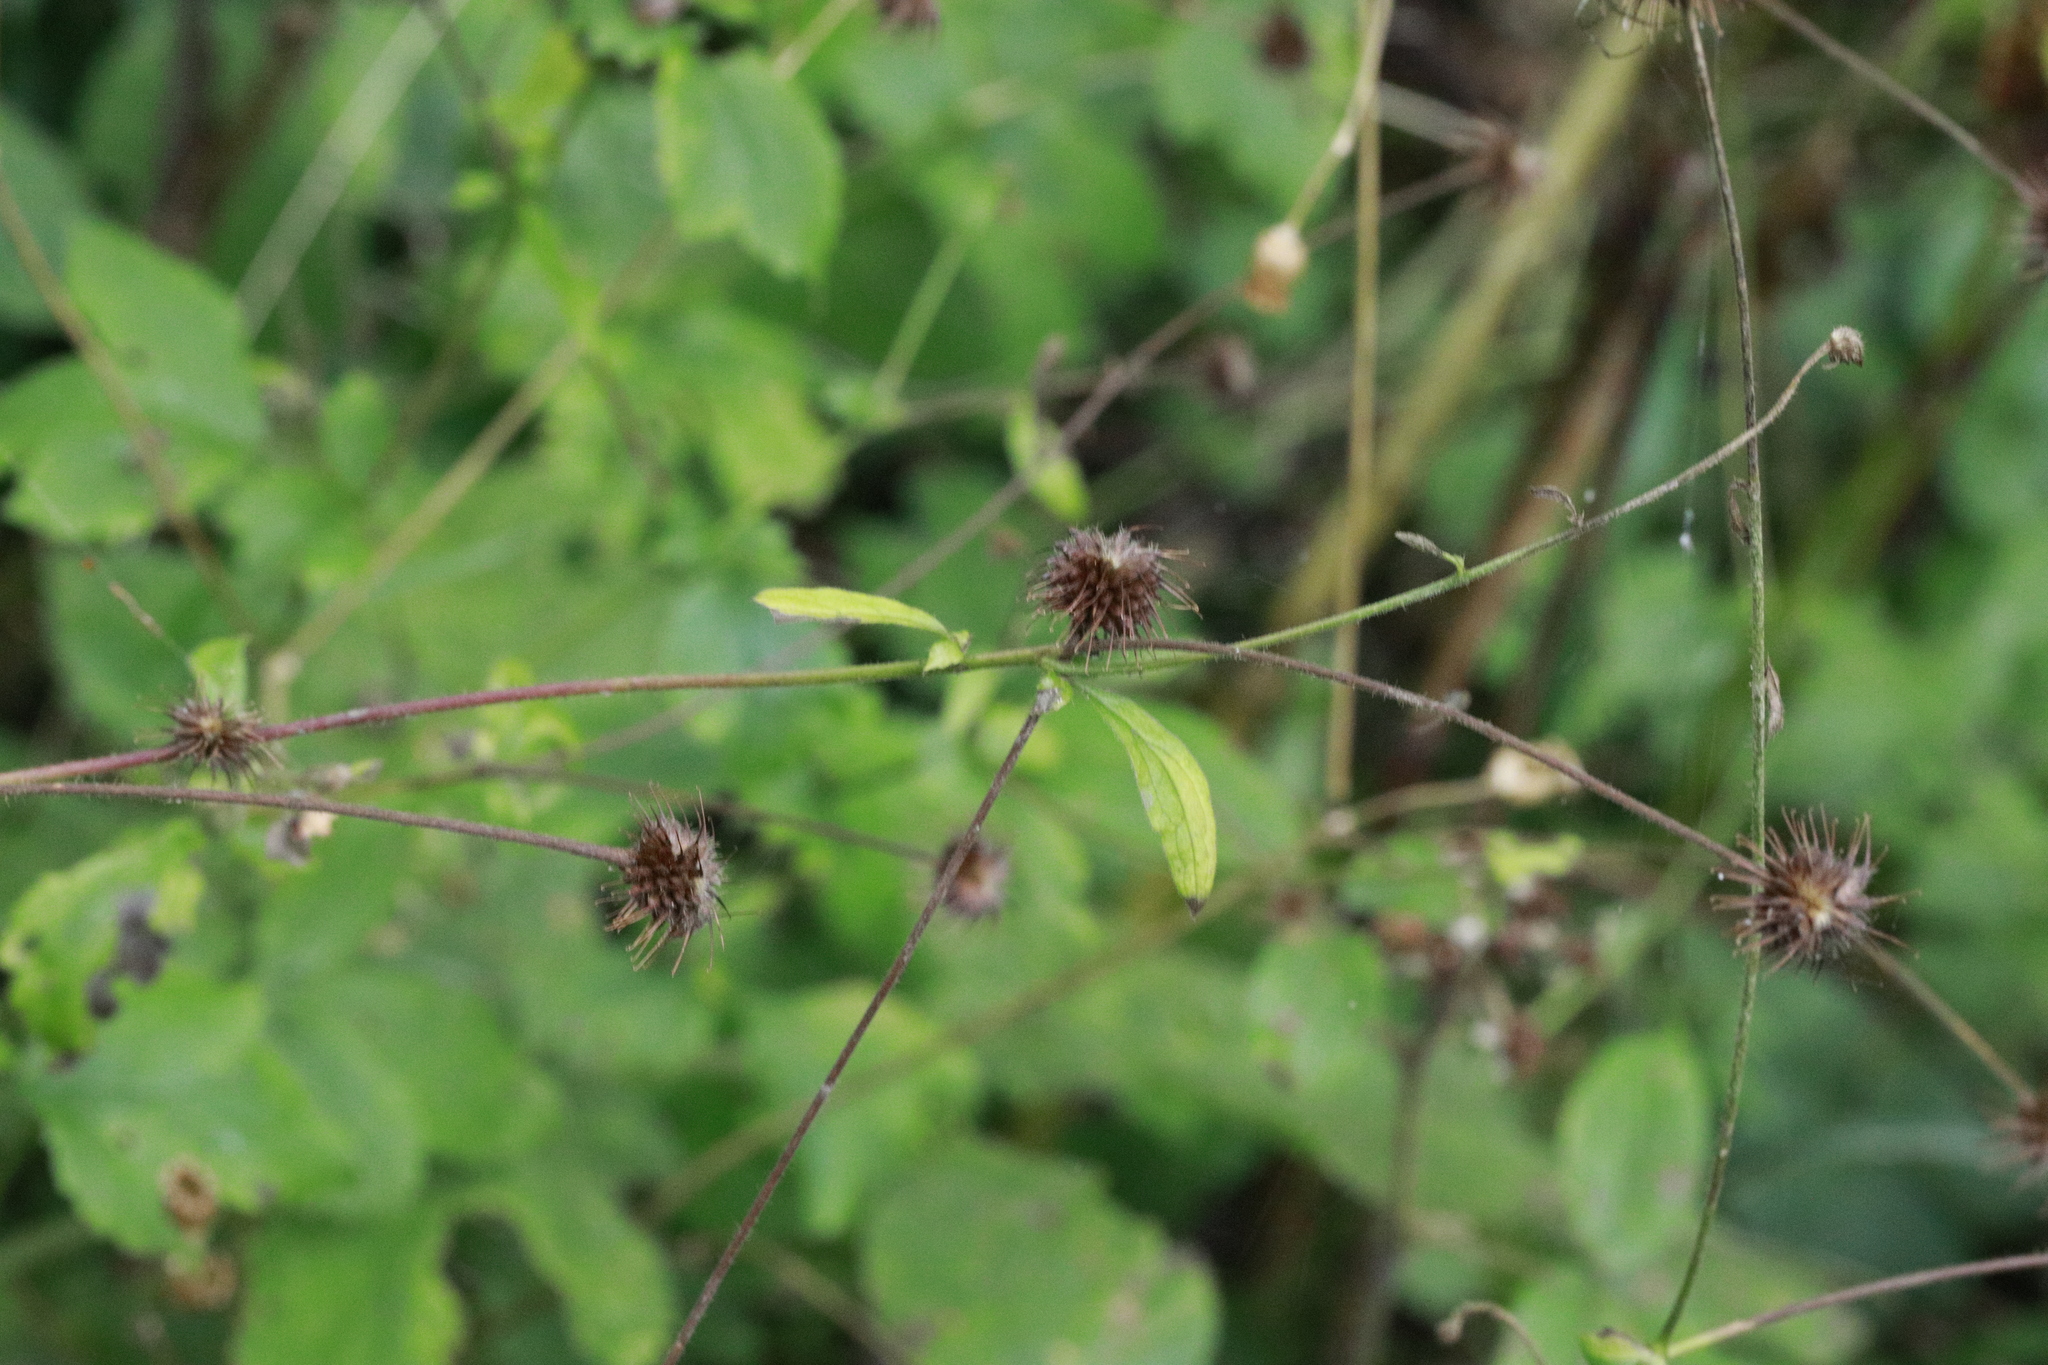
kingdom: Plantae
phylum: Tracheophyta
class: Magnoliopsida
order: Rosales
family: Rosaceae
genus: Geum
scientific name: Geum urbanum
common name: Wood avens
